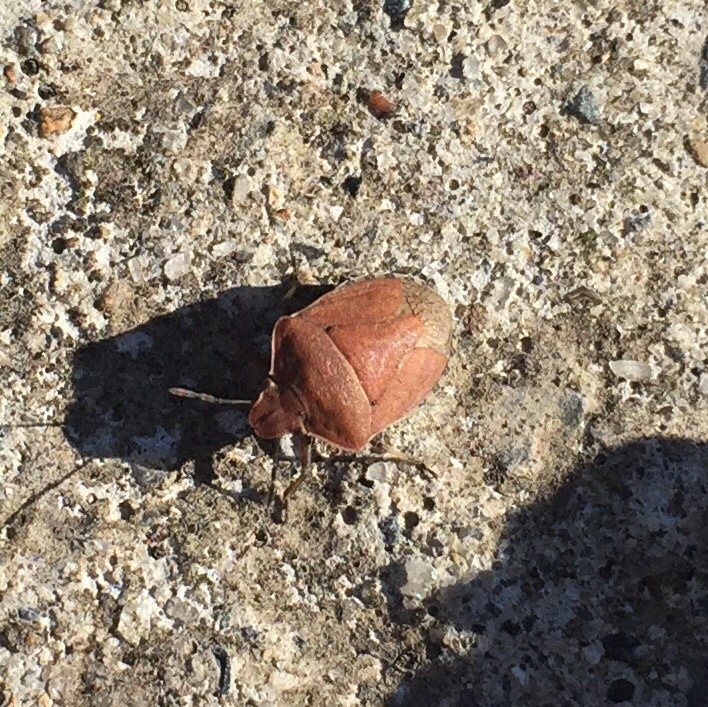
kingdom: Animalia
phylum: Arthropoda
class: Insecta
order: Hemiptera
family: Pentatomidae
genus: Dictyotus
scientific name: Dictyotus caenosus
